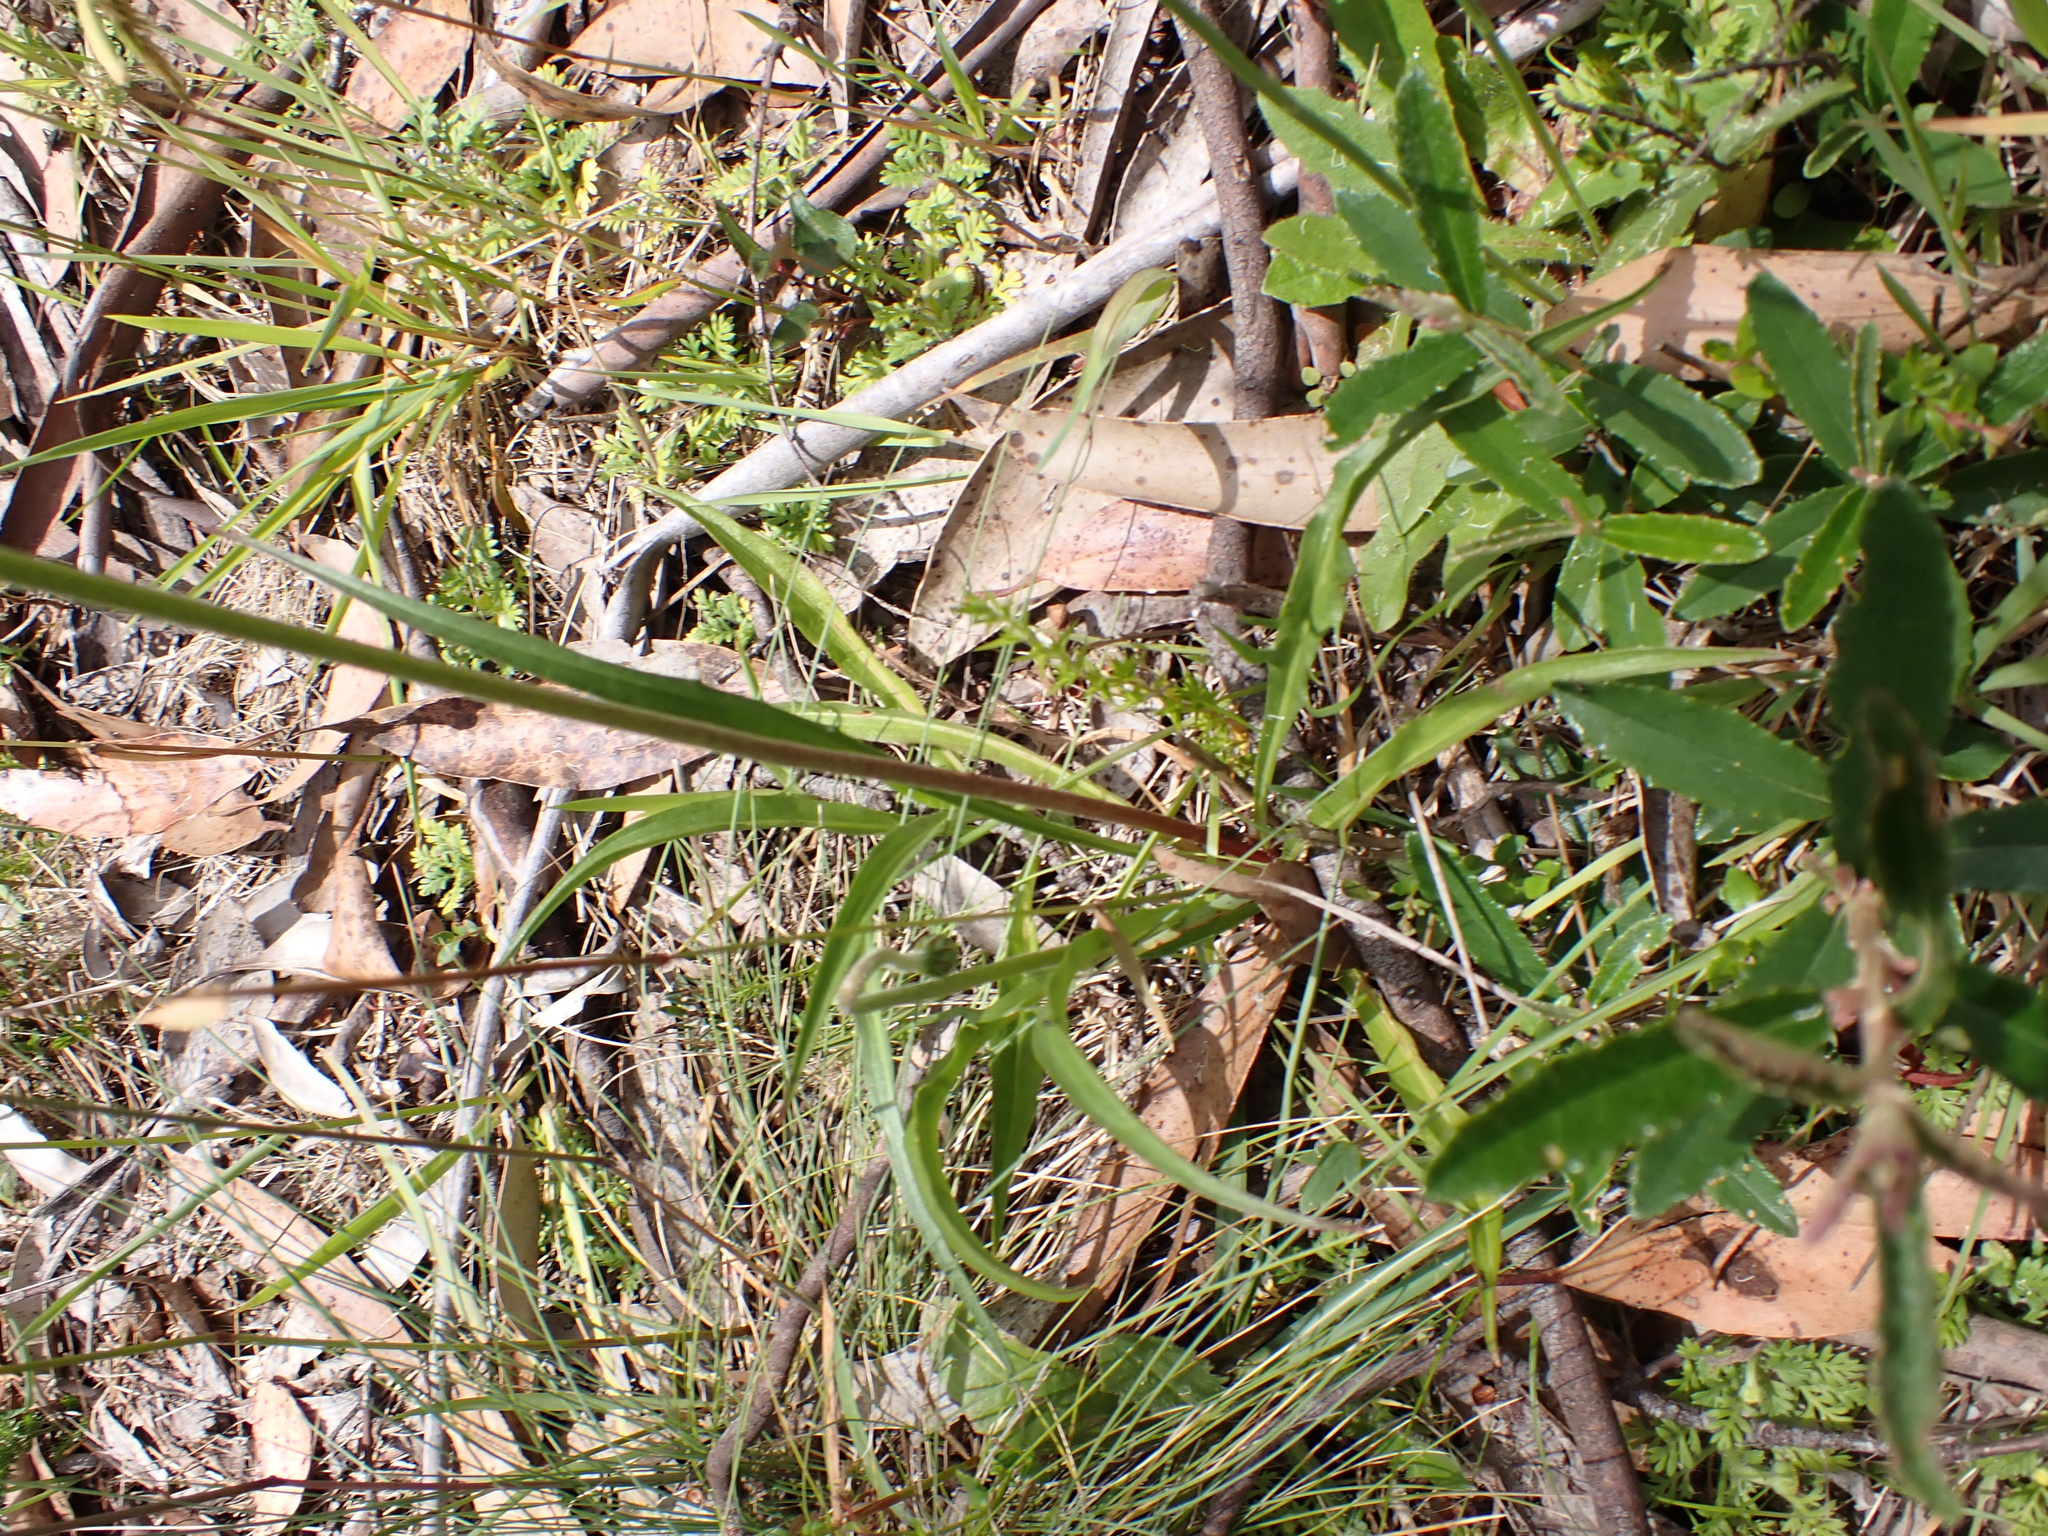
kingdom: Plantae
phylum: Tracheophyta
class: Magnoliopsida
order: Asterales
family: Asteraceae
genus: Microseris
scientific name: Microseris lanceolata
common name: Yam daisy
